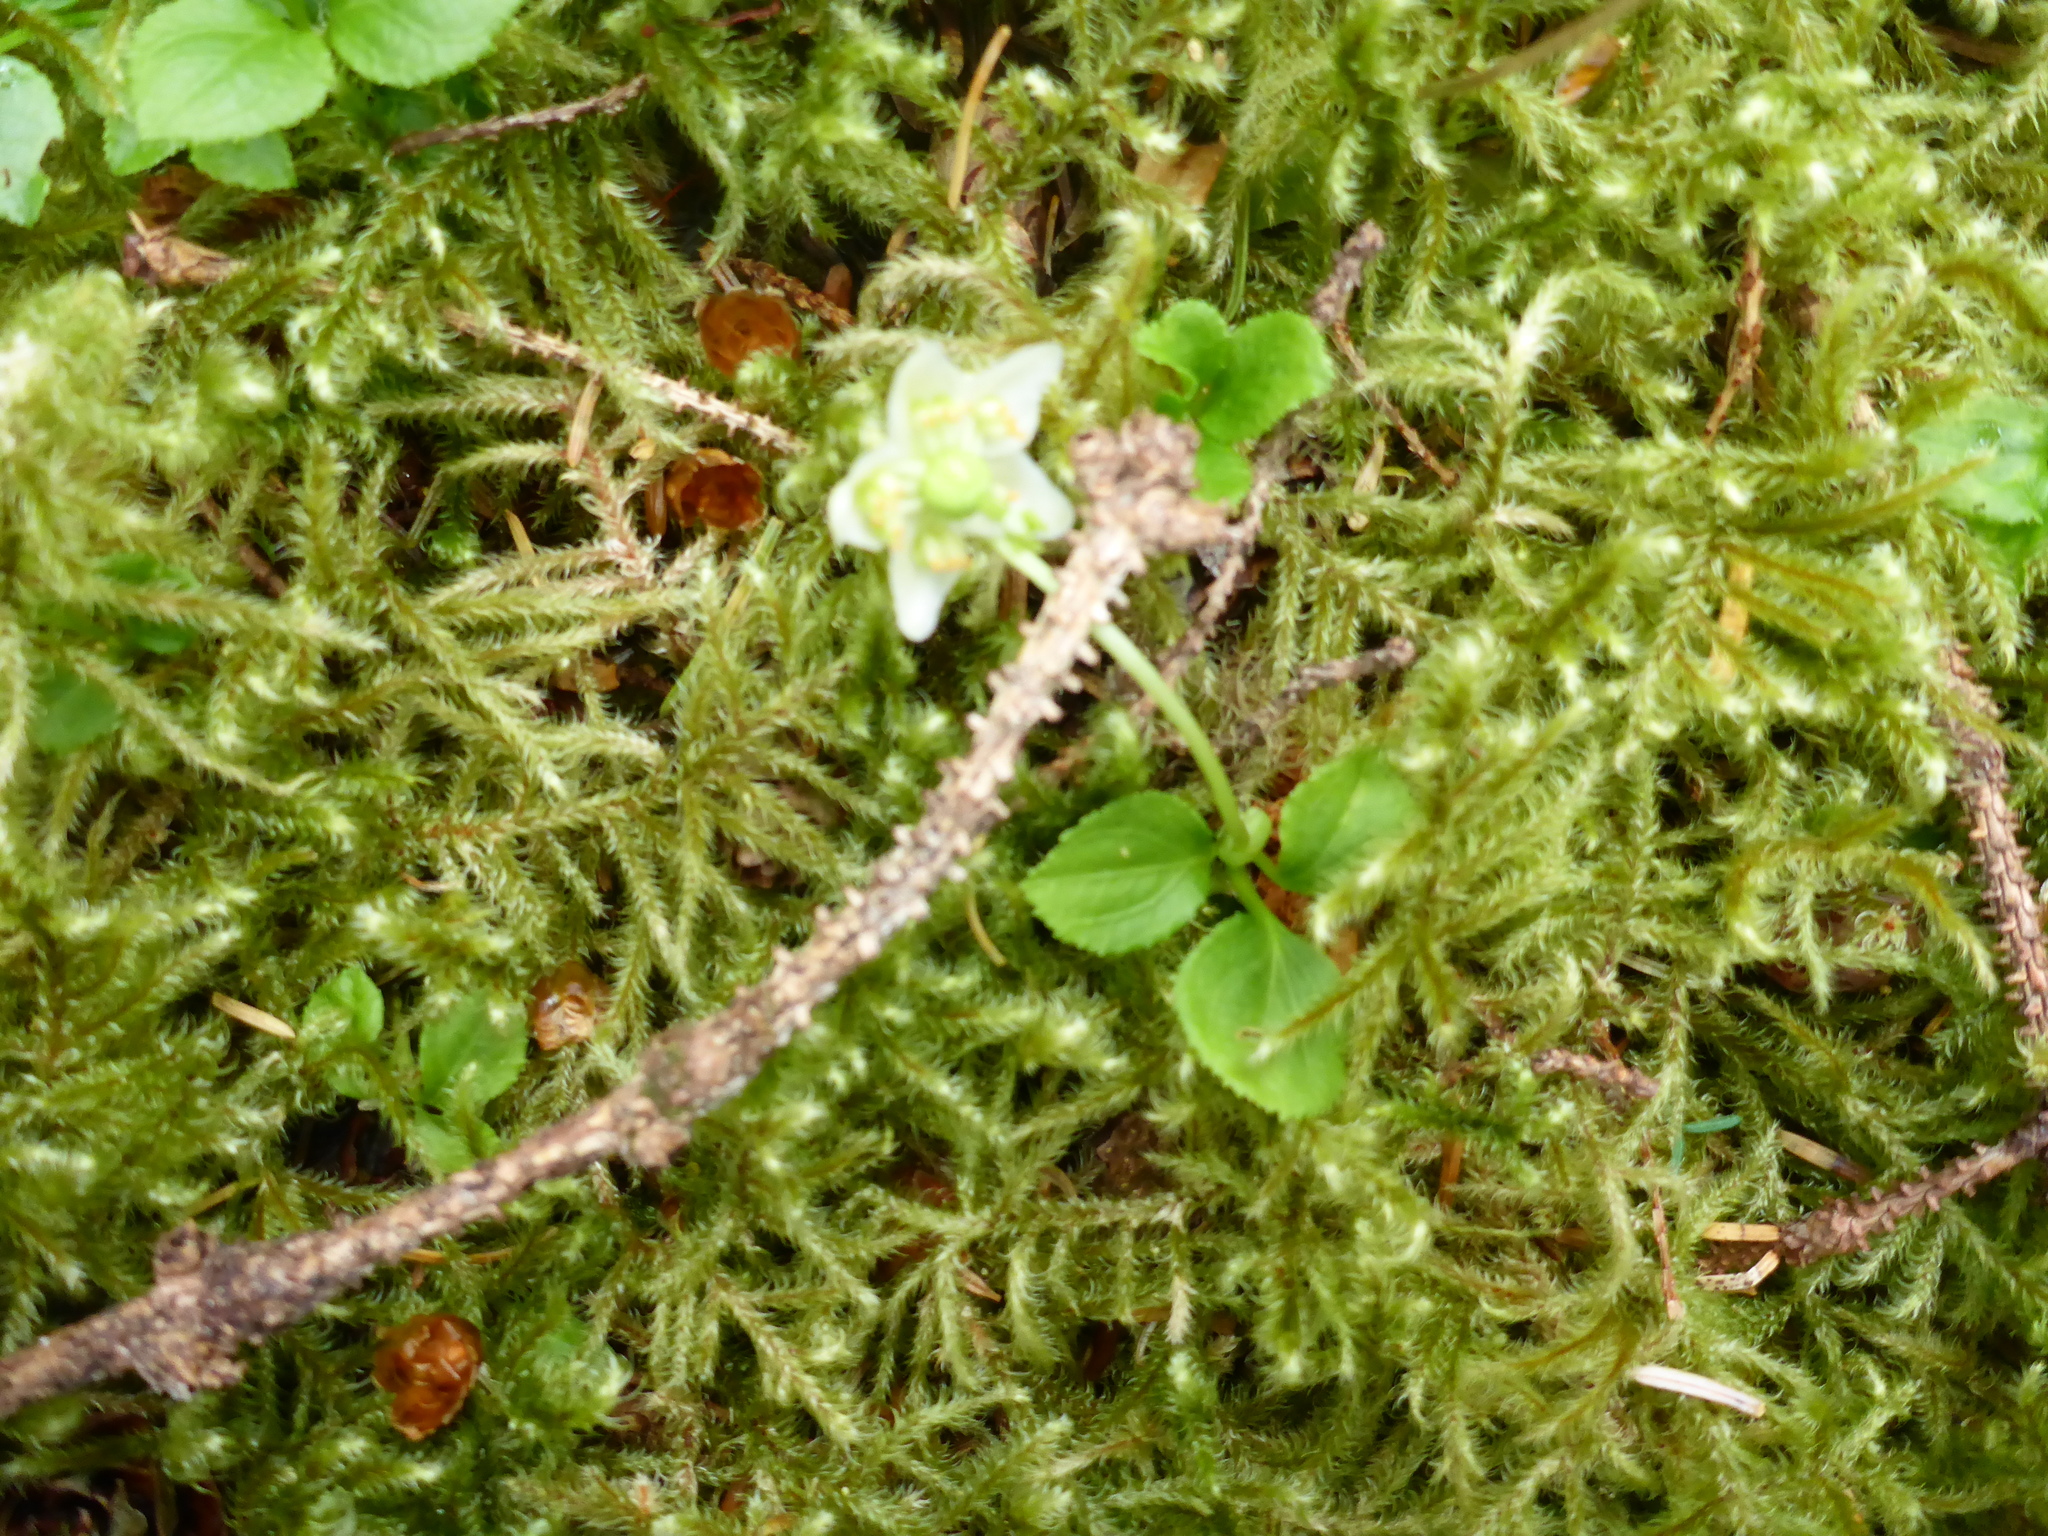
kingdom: Plantae
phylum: Tracheophyta
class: Magnoliopsida
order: Ericales
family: Ericaceae
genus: Moneses
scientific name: Moneses uniflora
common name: One-flowered wintergreen
